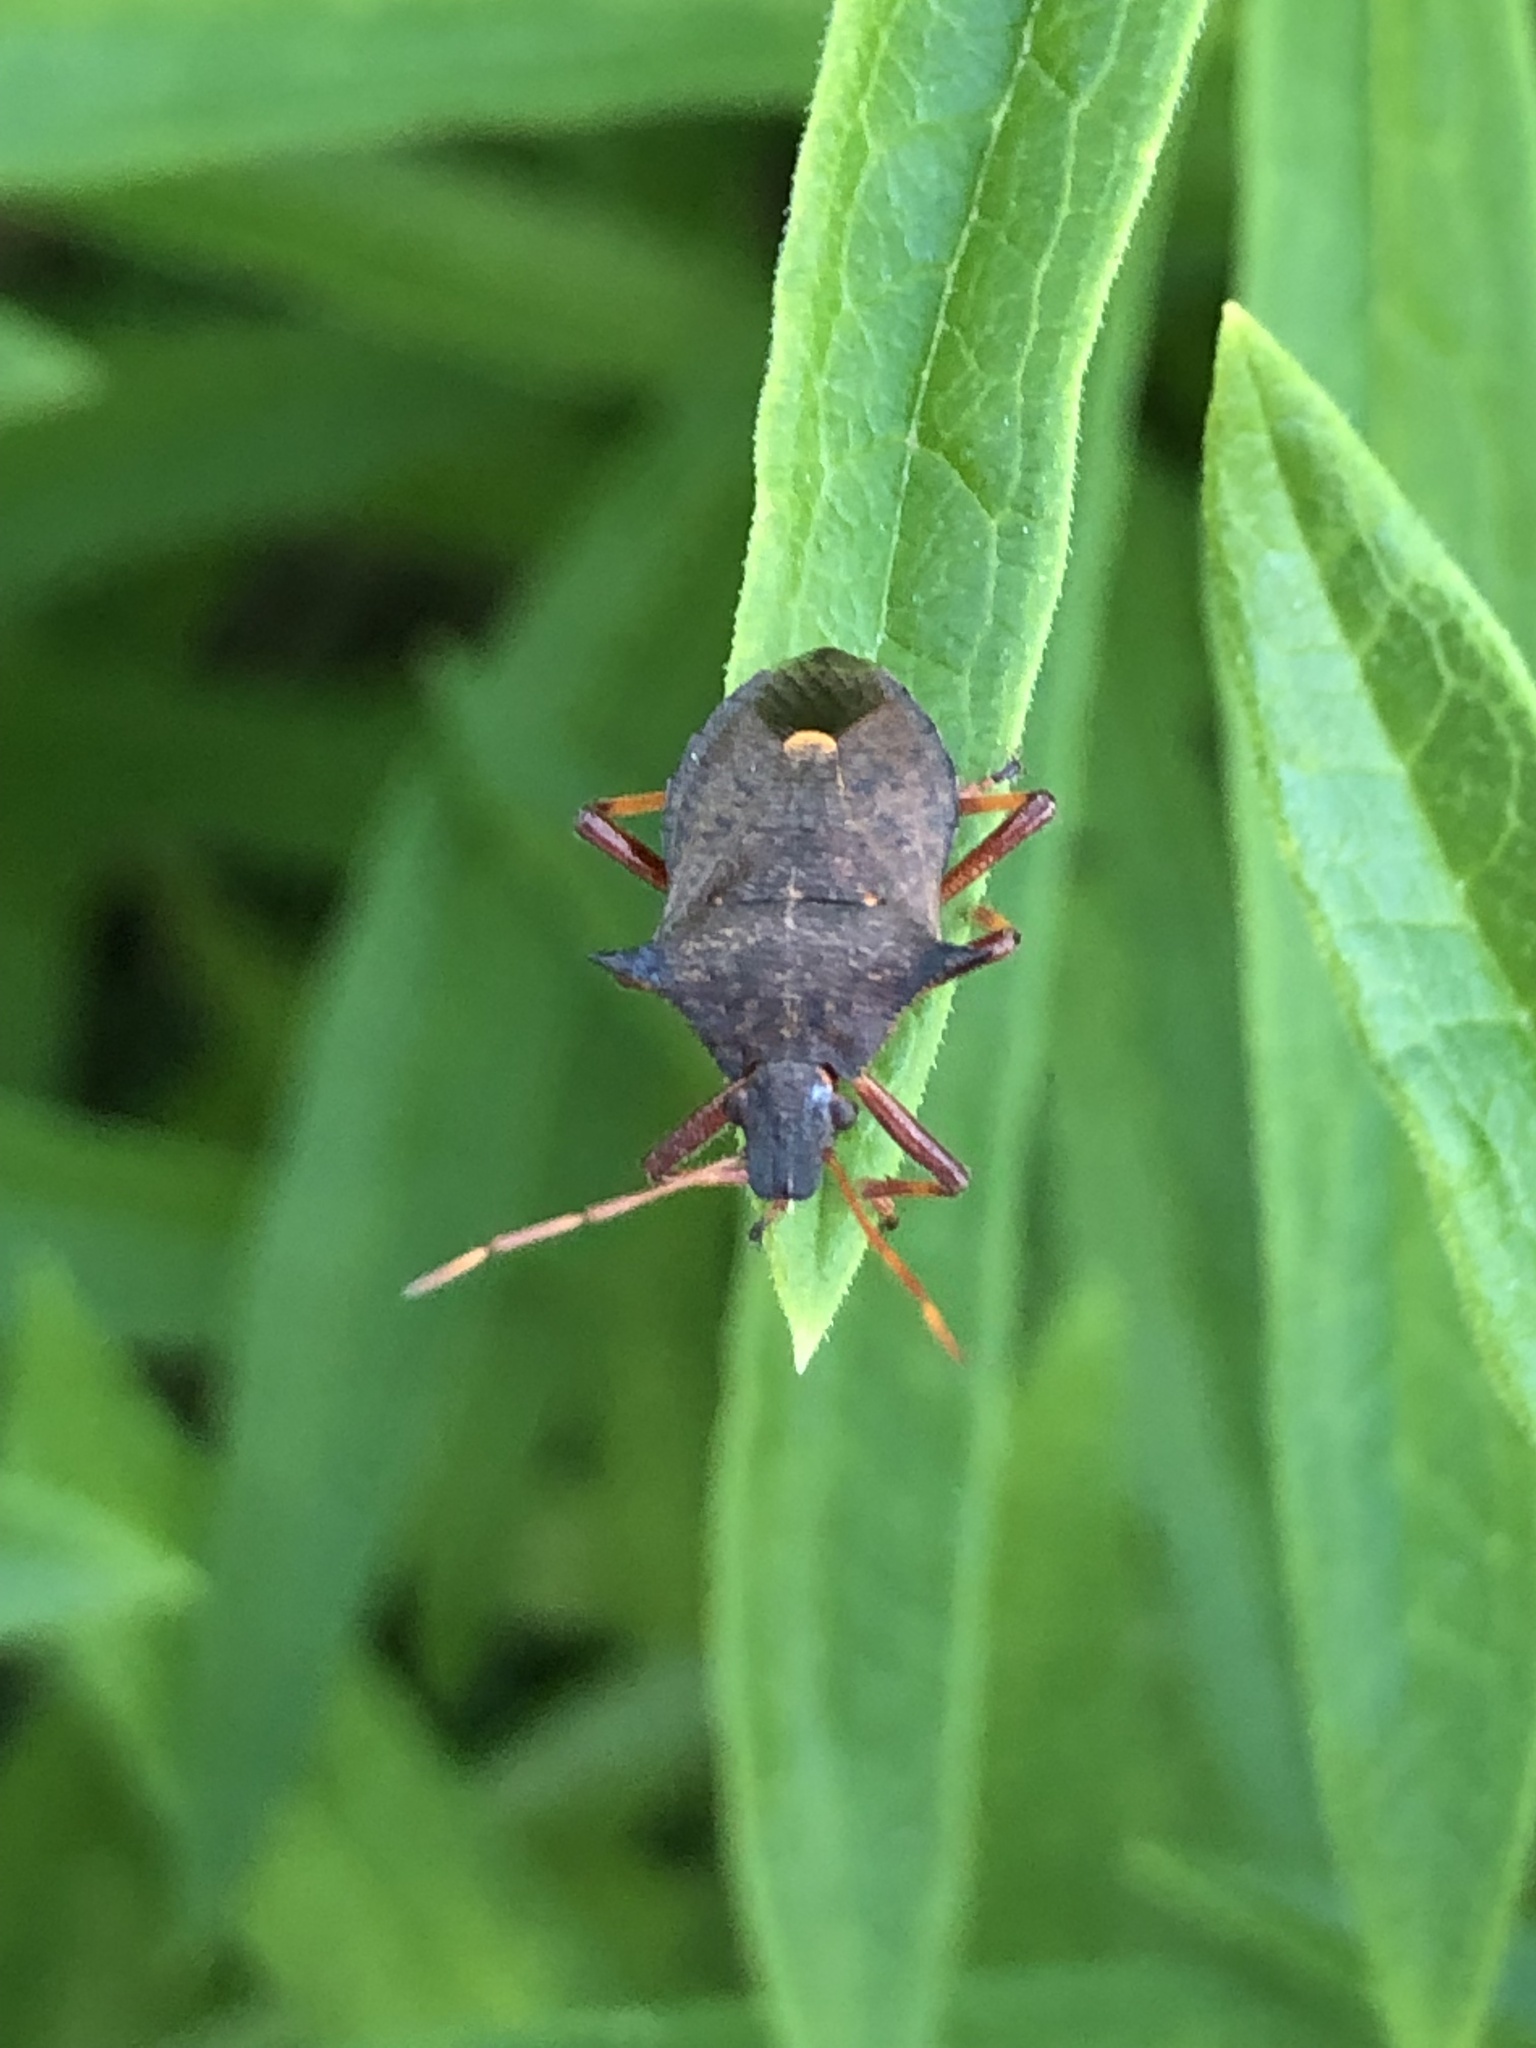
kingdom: Animalia
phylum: Arthropoda
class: Insecta
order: Hemiptera
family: Pentatomidae
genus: Picromerus
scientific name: Picromerus bidens
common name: Spiked shieldbug
